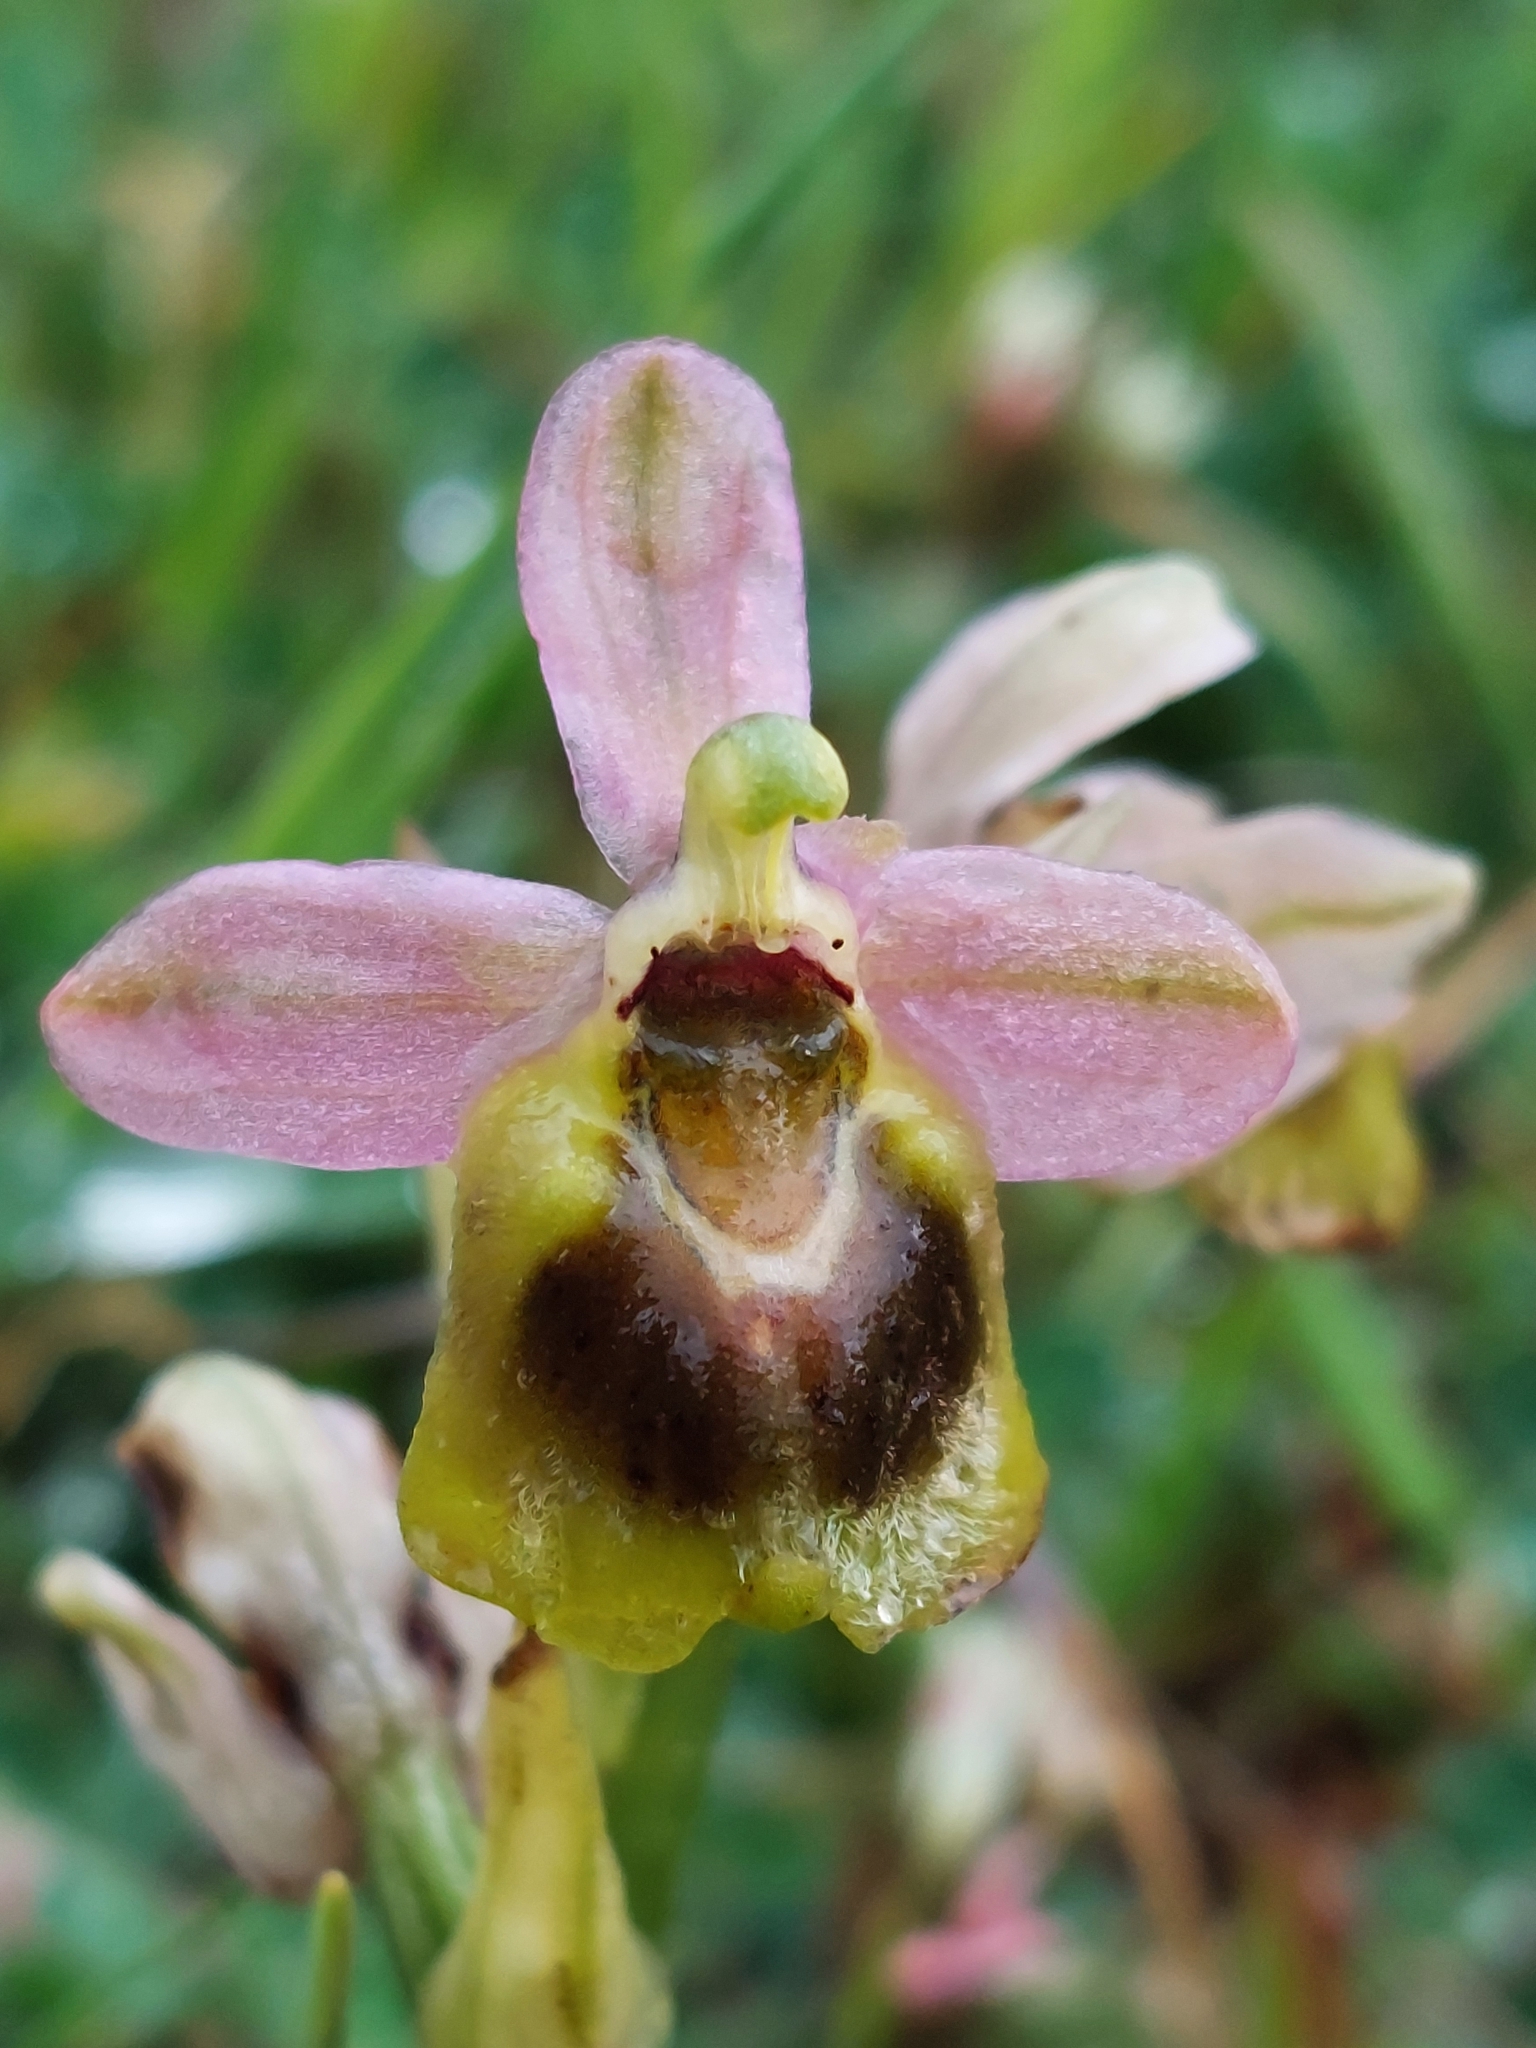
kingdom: Plantae
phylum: Tracheophyta
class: Liliopsida
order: Asparagales
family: Orchidaceae
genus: Ophrys
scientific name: Ophrys tenthredinifera
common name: Sawfly orchid
